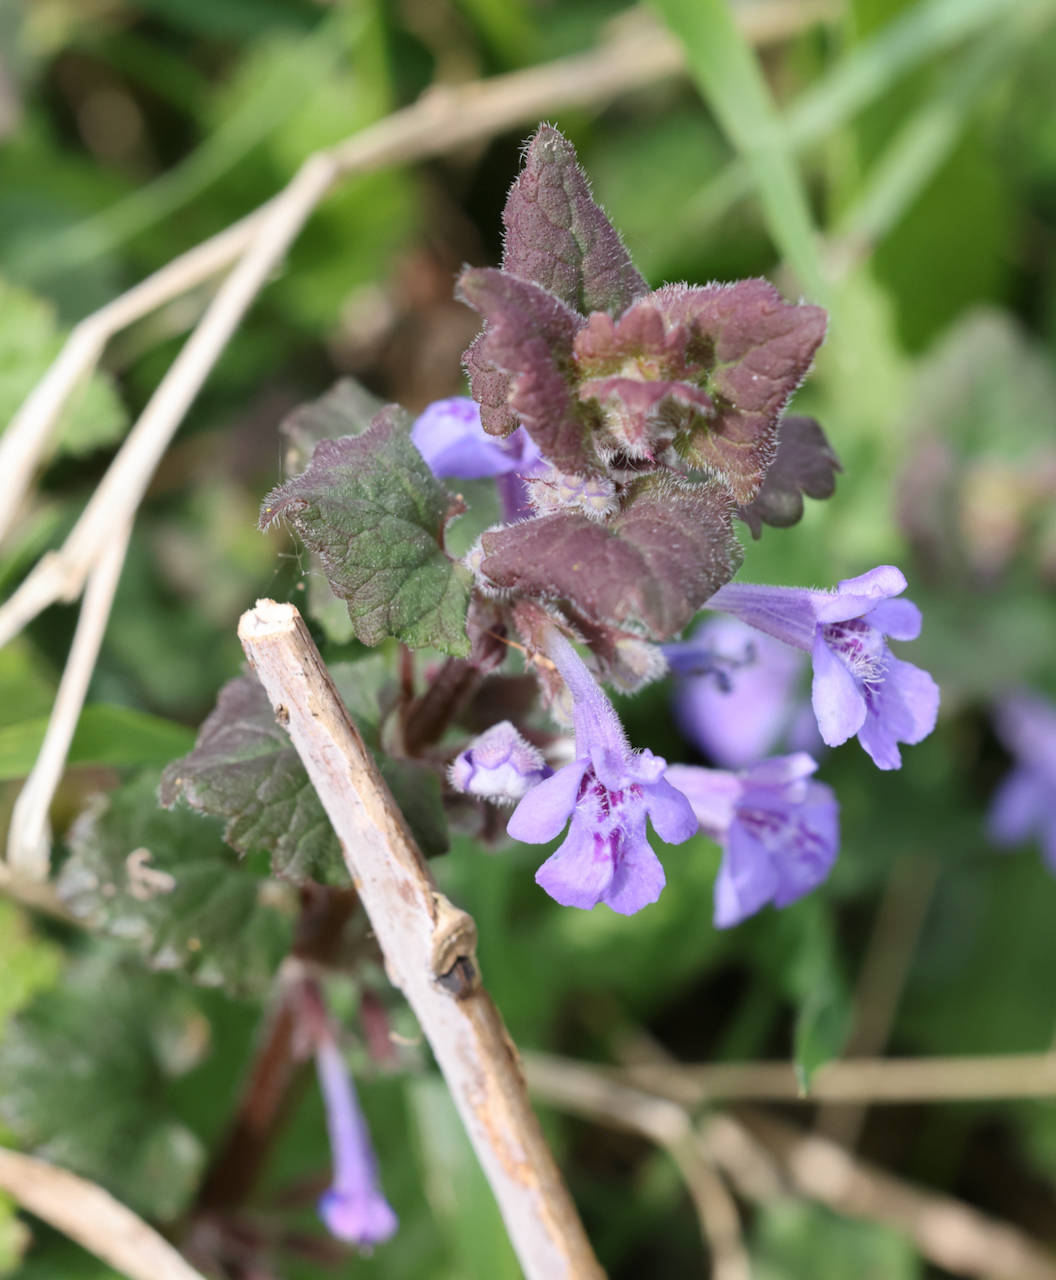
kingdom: Plantae
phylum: Tracheophyta
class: Magnoliopsida
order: Lamiales
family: Lamiaceae
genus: Glechoma
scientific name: Glechoma hederacea
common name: Ground ivy
